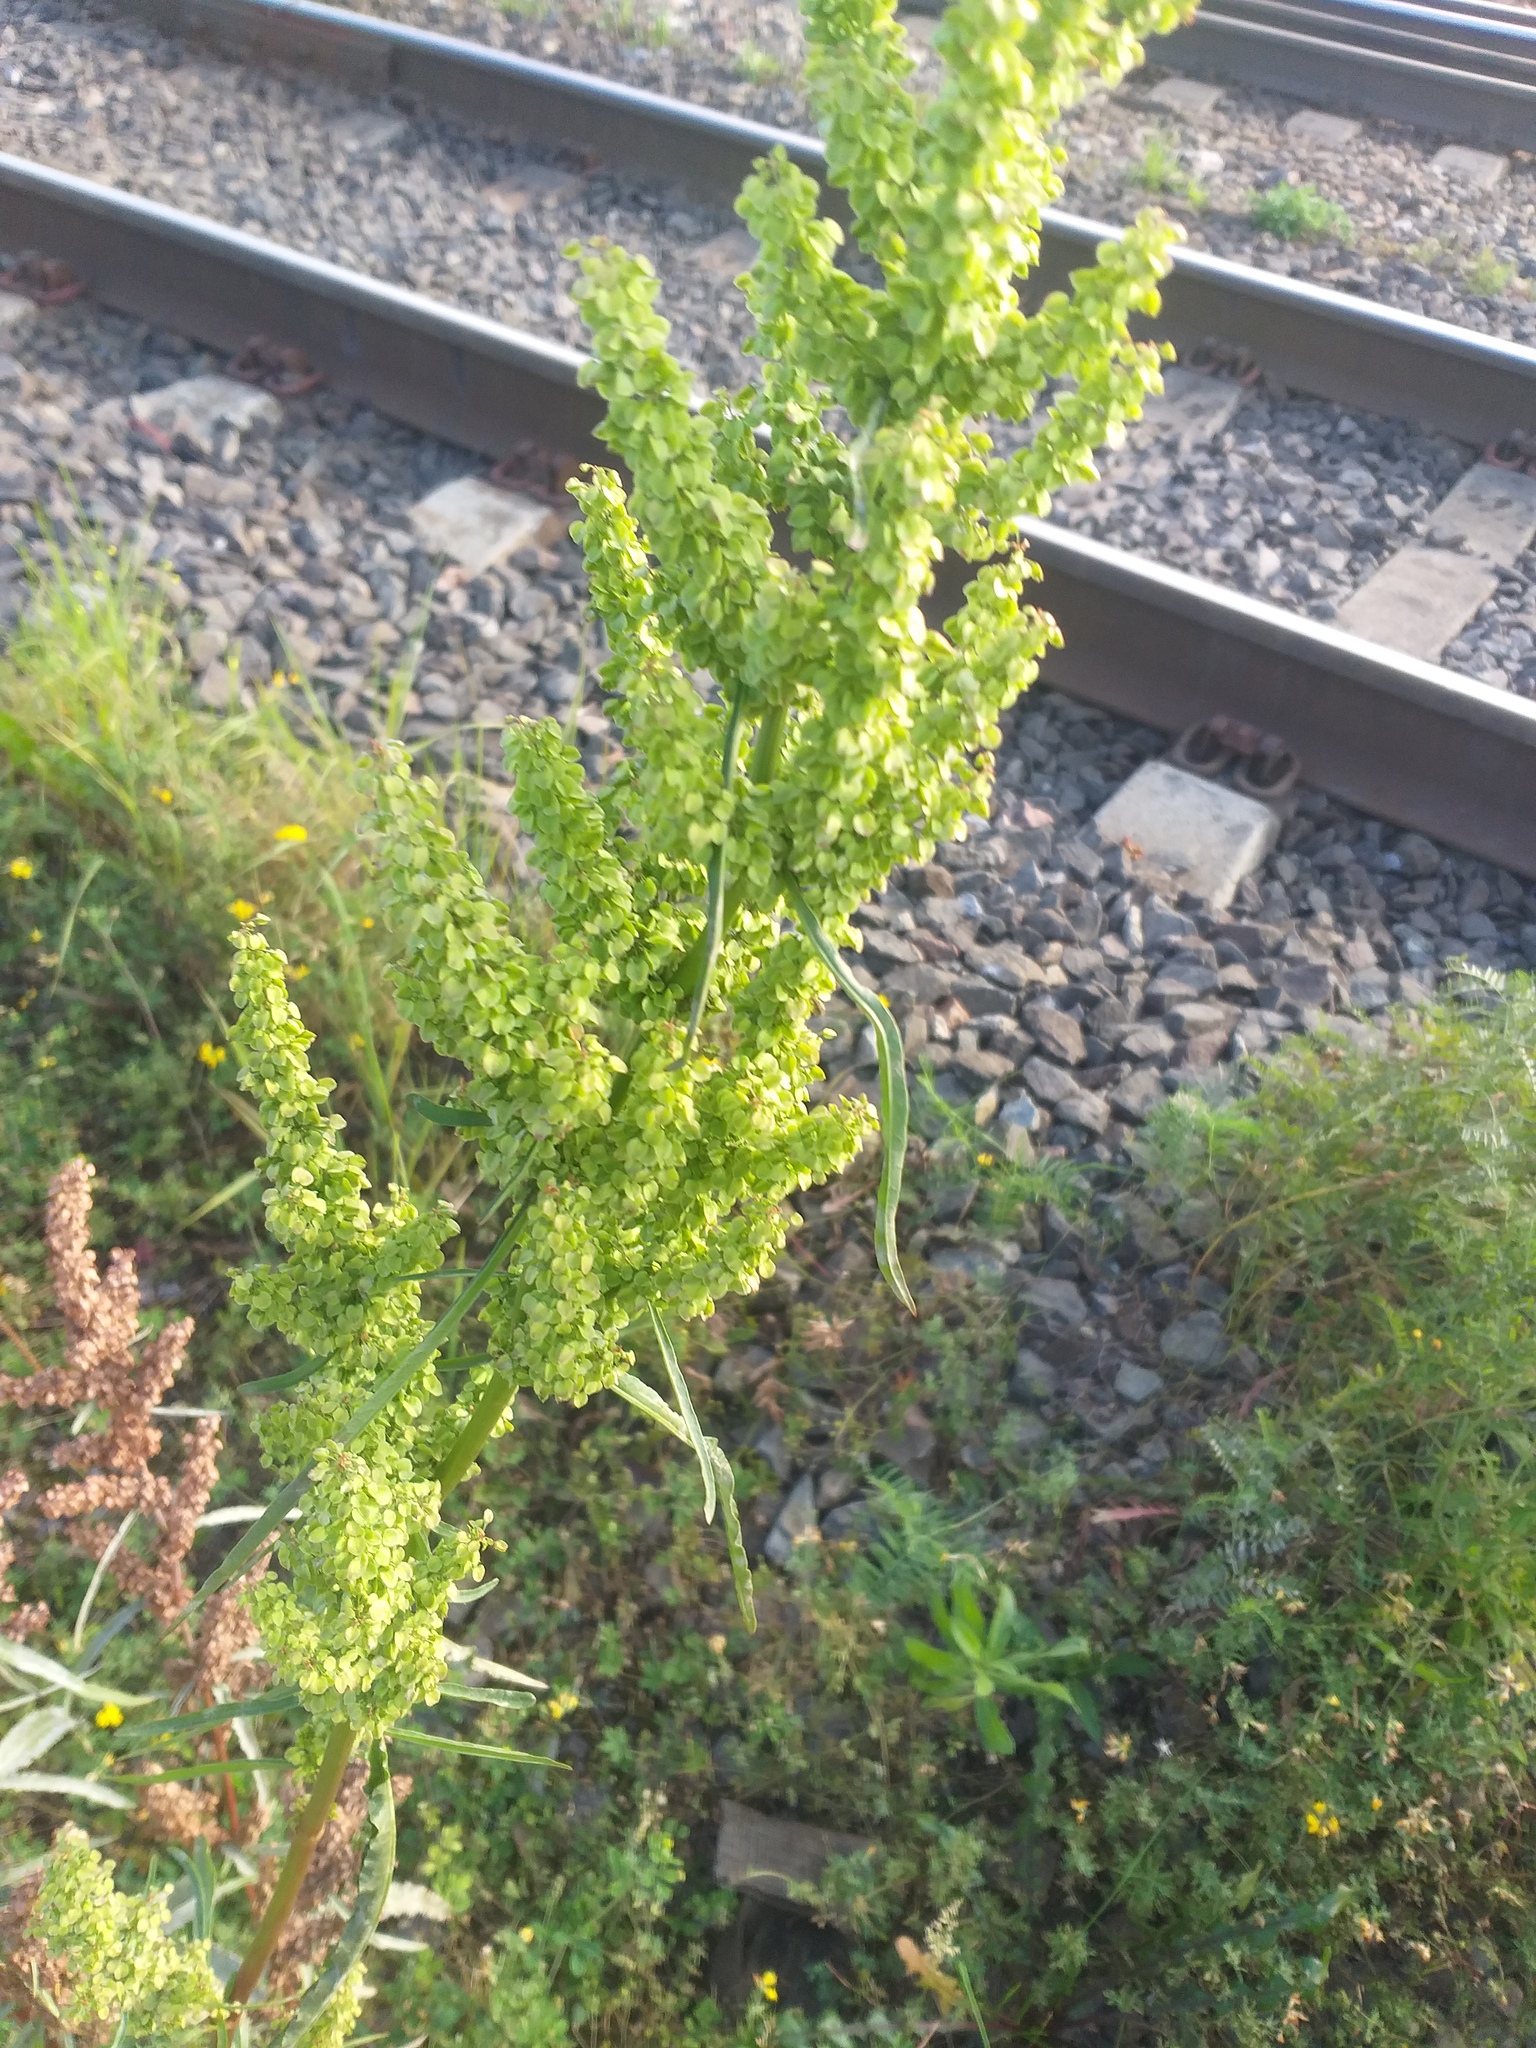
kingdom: Plantae
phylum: Tracheophyta
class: Magnoliopsida
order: Caryophyllales
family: Polygonaceae
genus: Rumex
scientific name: Rumex pseudonatronatus
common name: Field dock
